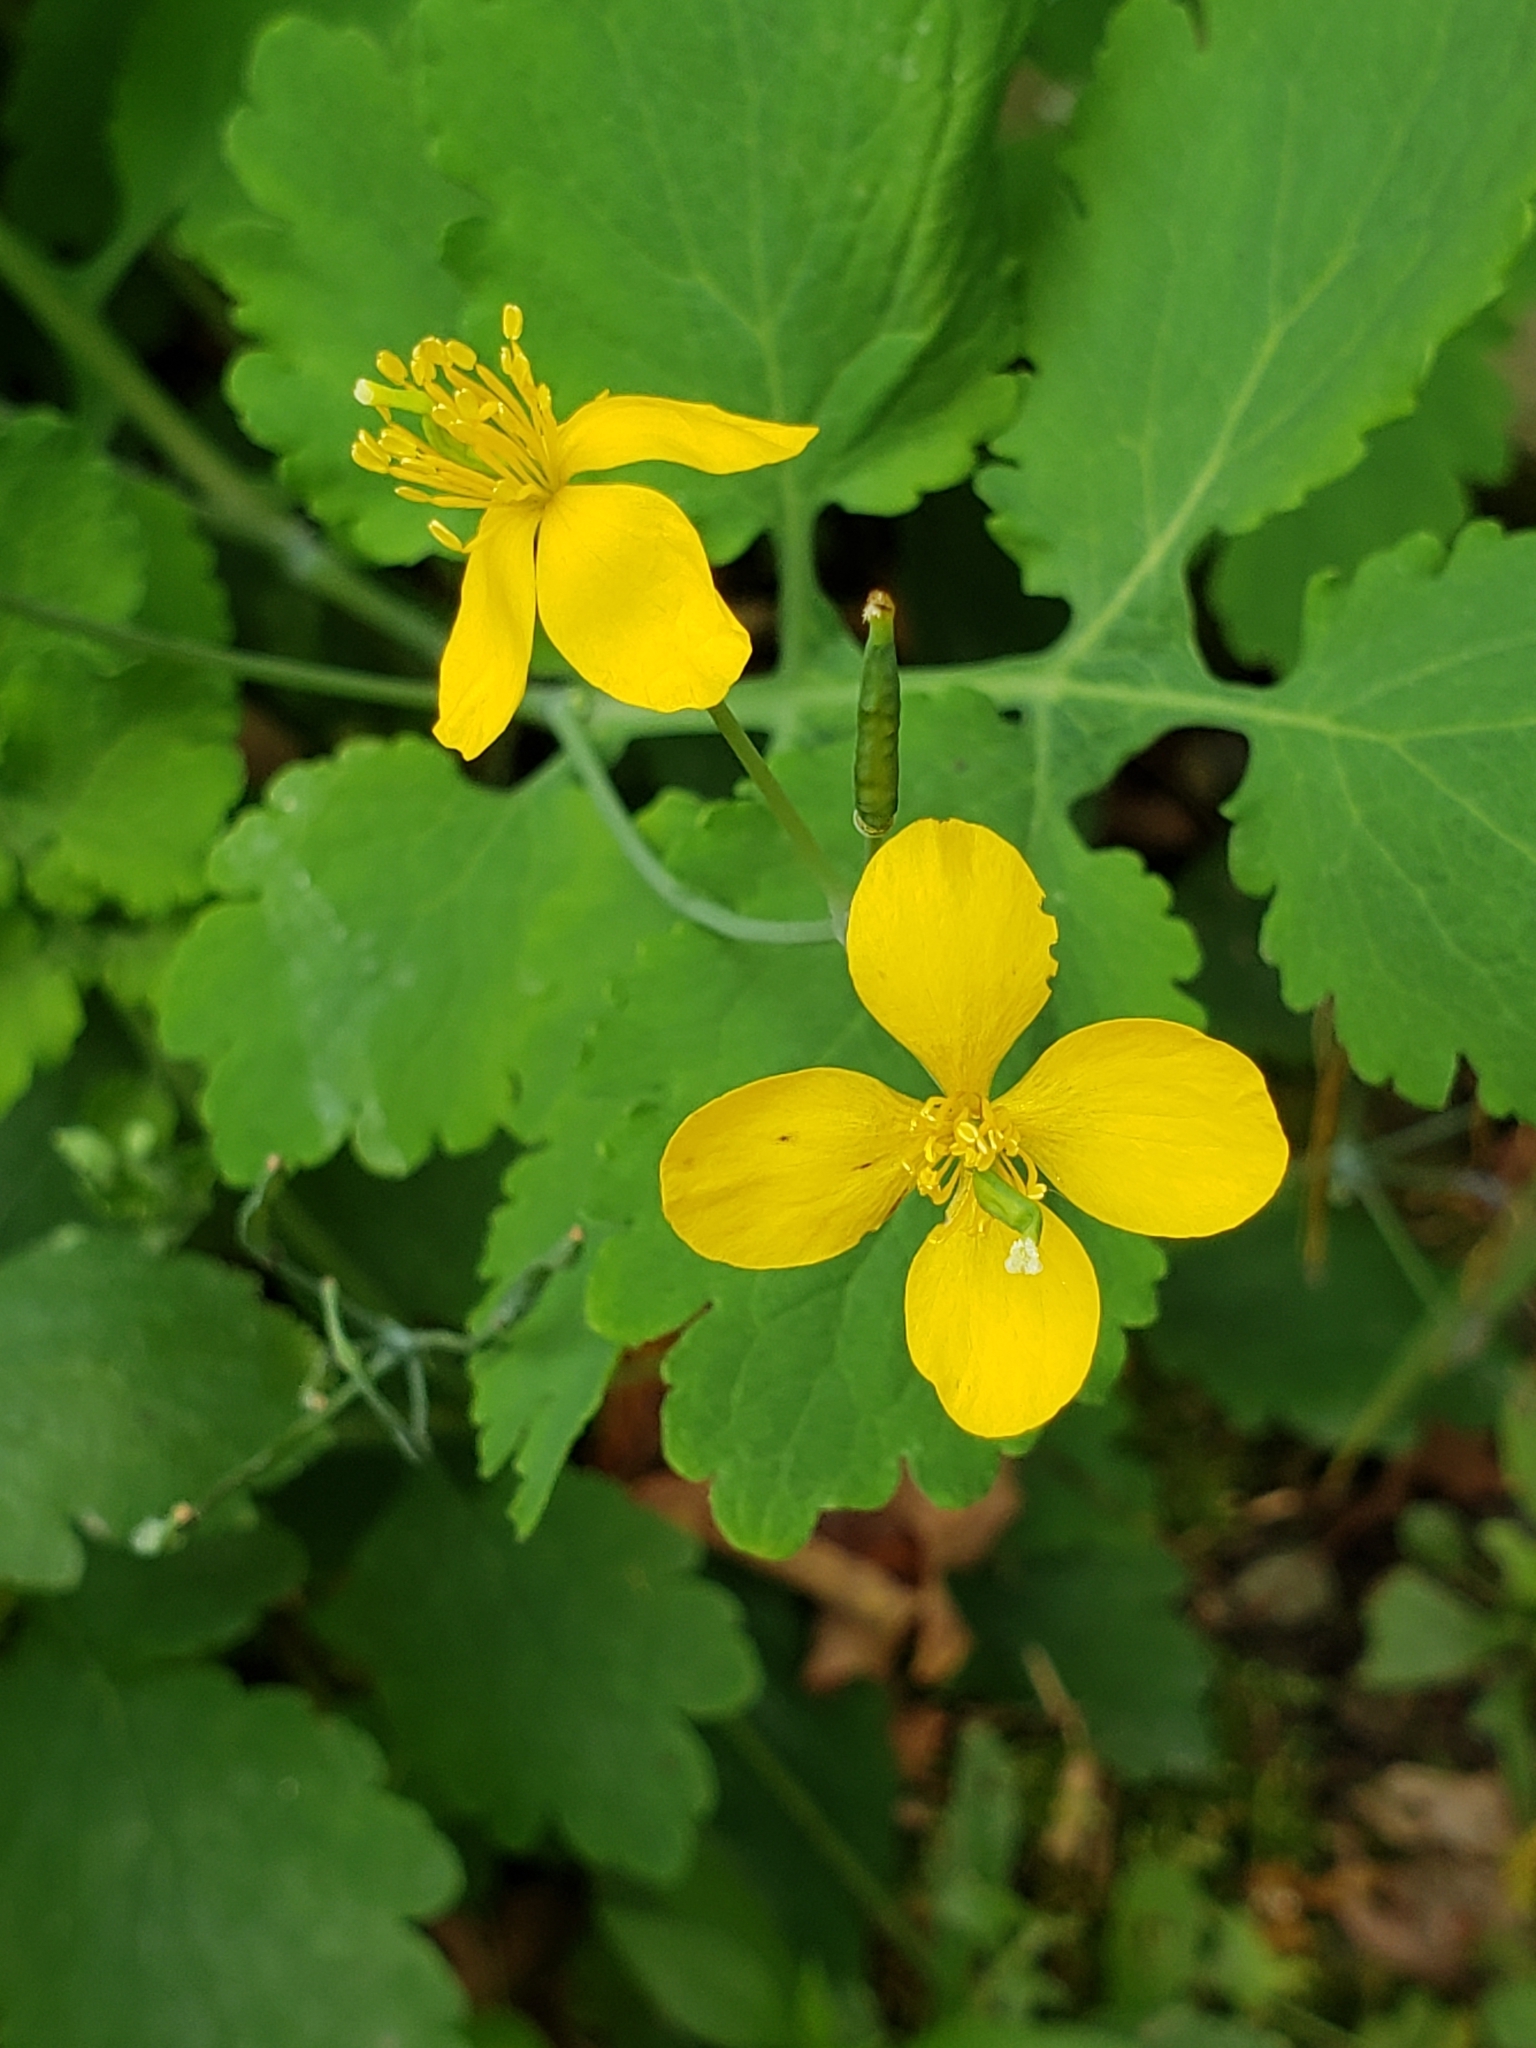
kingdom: Plantae
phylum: Tracheophyta
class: Magnoliopsida
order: Ranunculales
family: Papaveraceae
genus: Chelidonium
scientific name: Chelidonium majus
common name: Greater celandine
